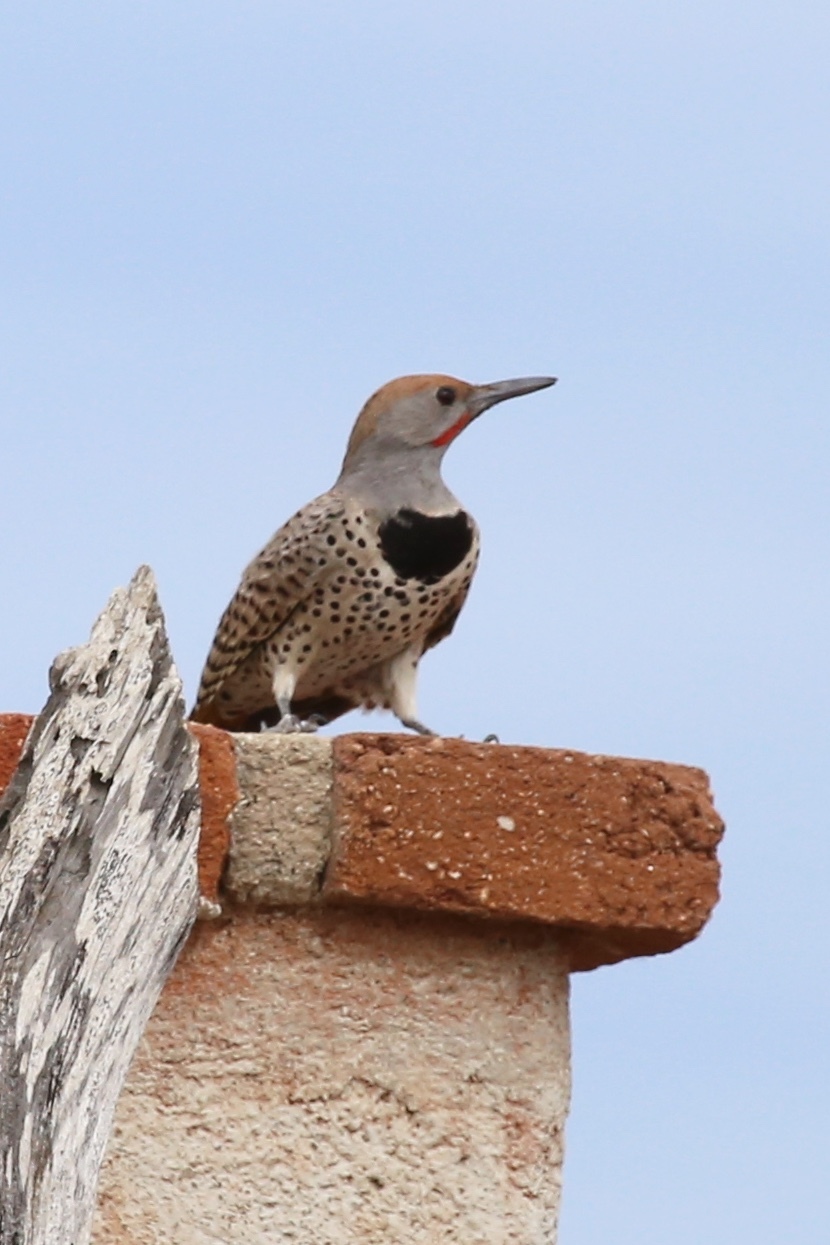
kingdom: Animalia
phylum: Chordata
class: Aves
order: Piciformes
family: Picidae
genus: Colaptes
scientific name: Colaptes chrysoides
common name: Gilded flicker
